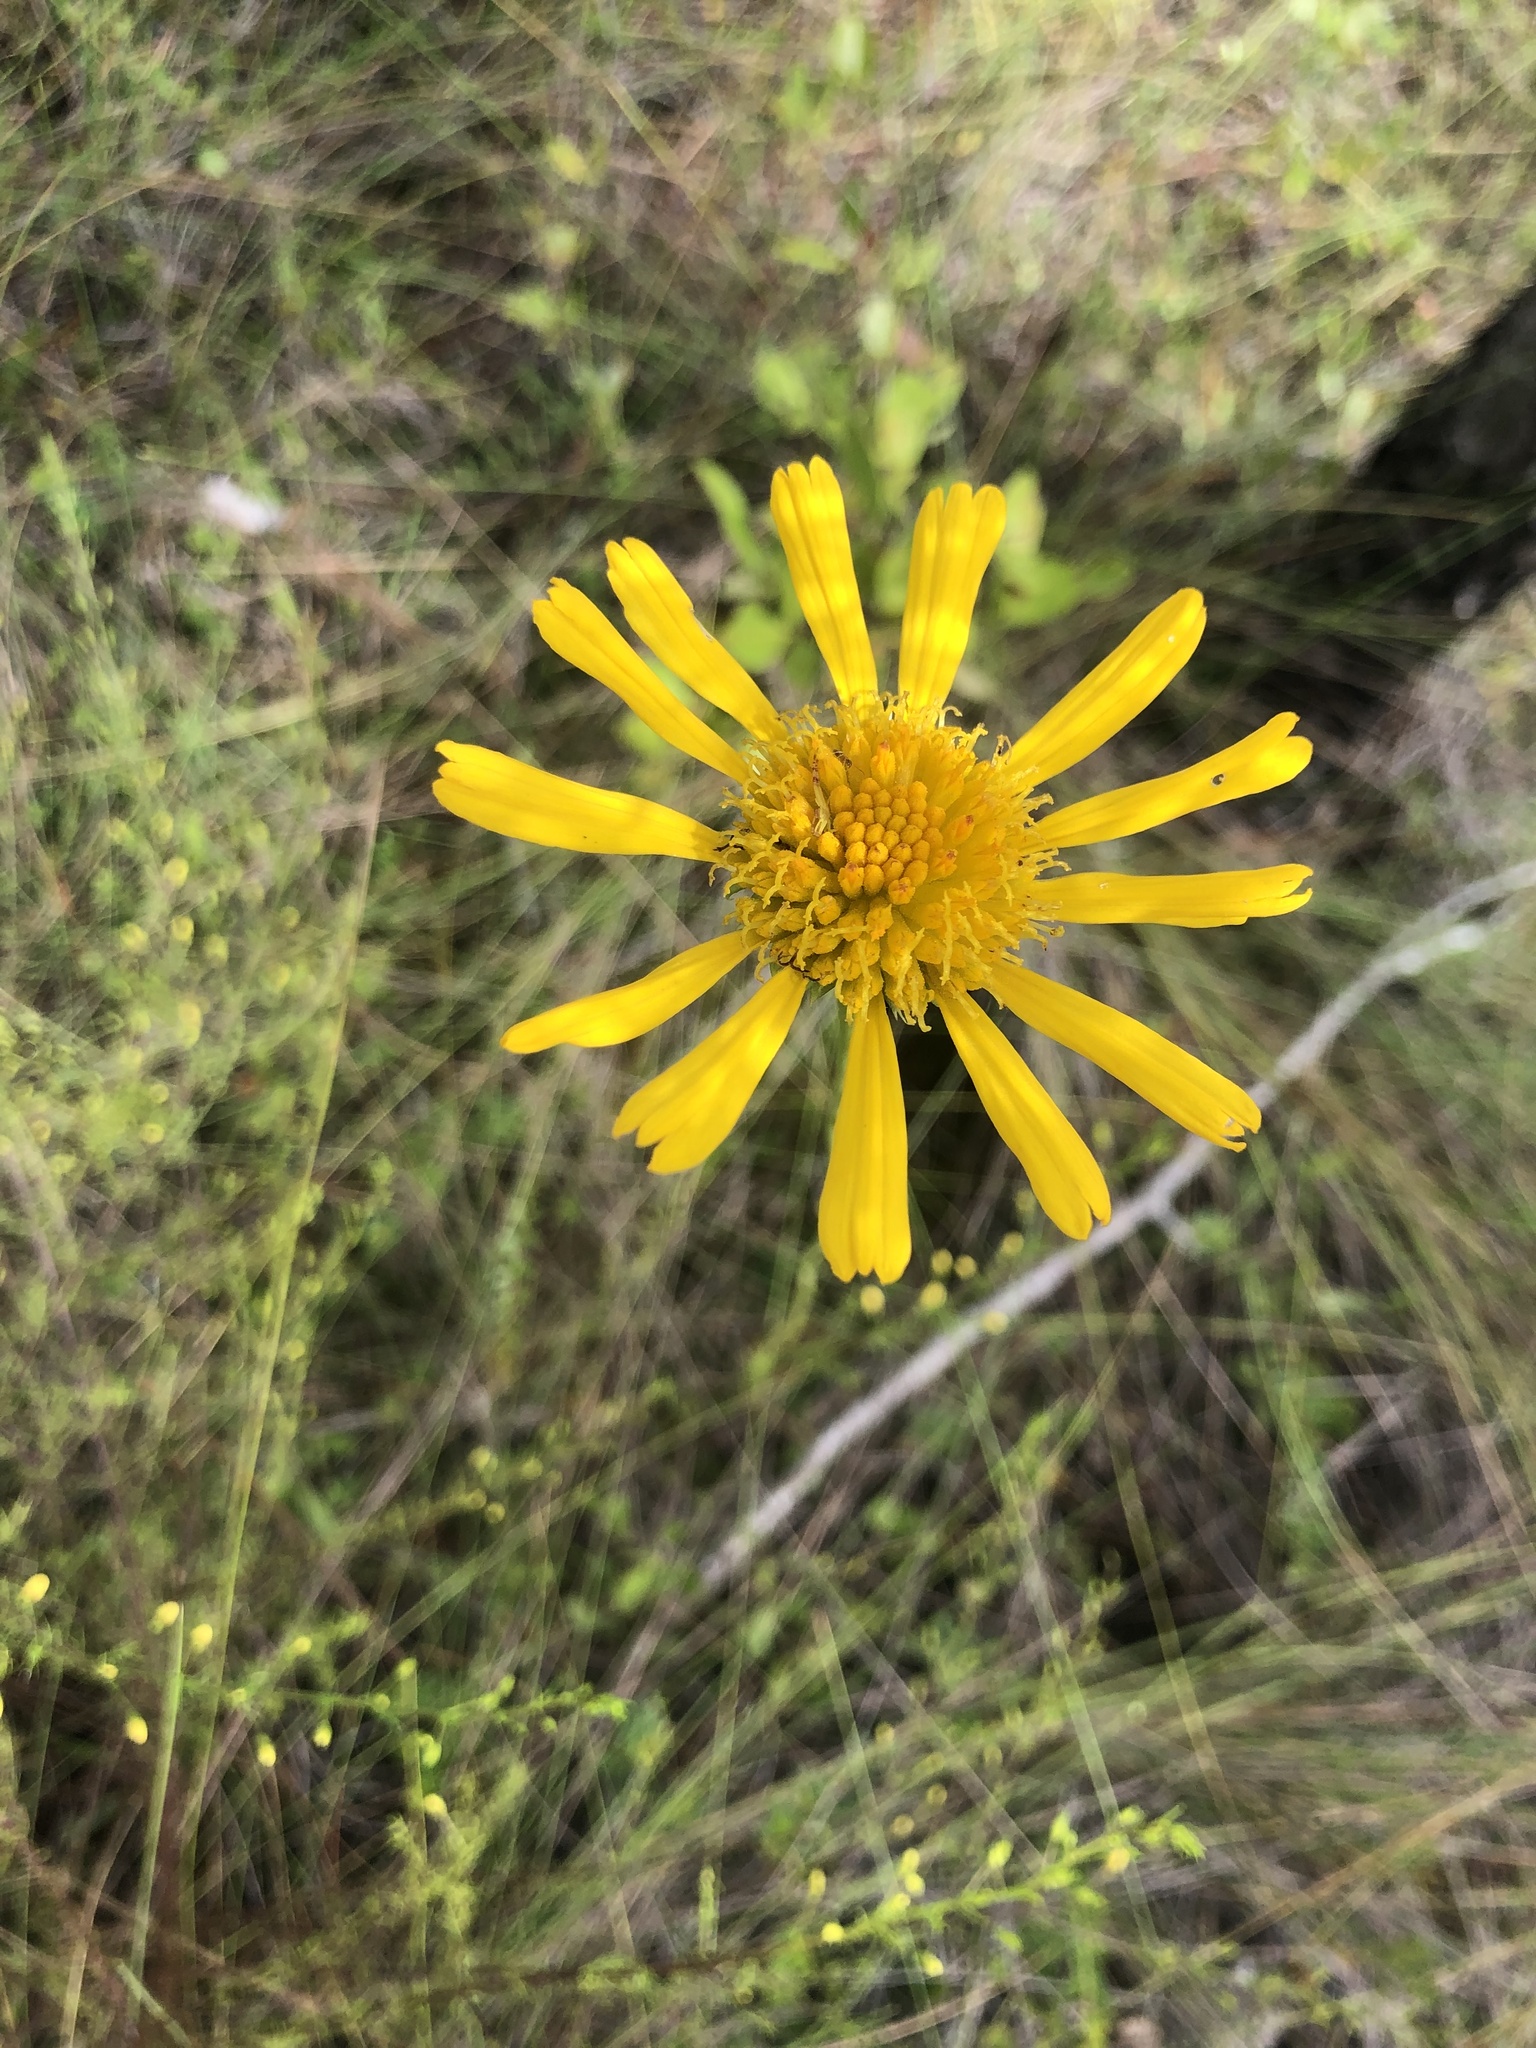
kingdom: Plantae
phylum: Tracheophyta
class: Magnoliopsida
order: Asterales
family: Asteraceae
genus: Balduina
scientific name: Balduina uniflora
